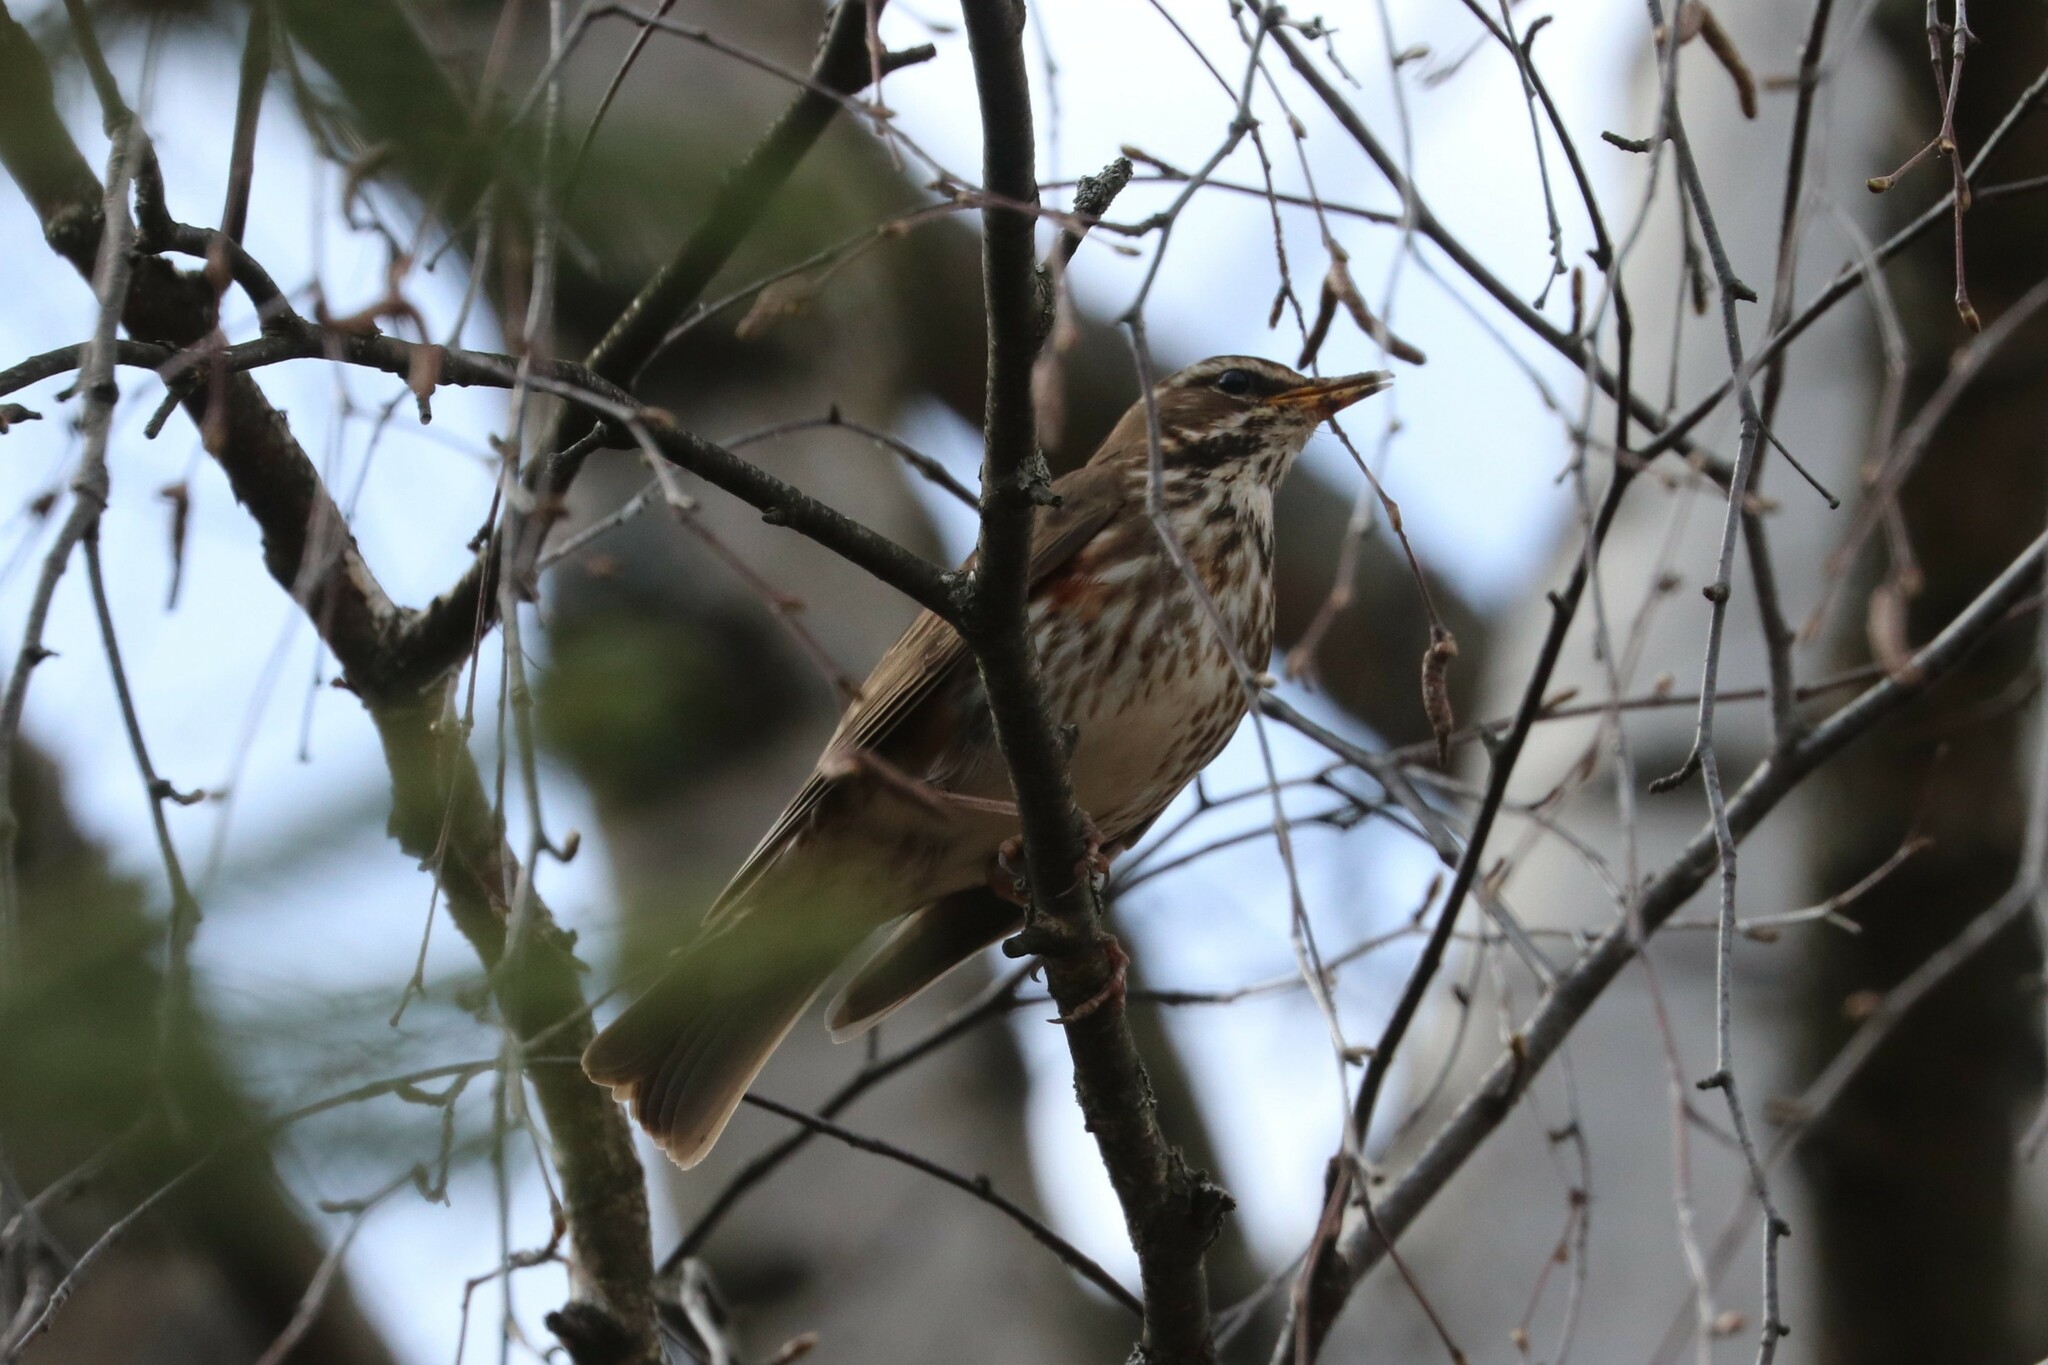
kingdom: Animalia
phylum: Chordata
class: Aves
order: Passeriformes
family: Turdidae
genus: Turdus
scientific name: Turdus iliacus
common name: Redwing
